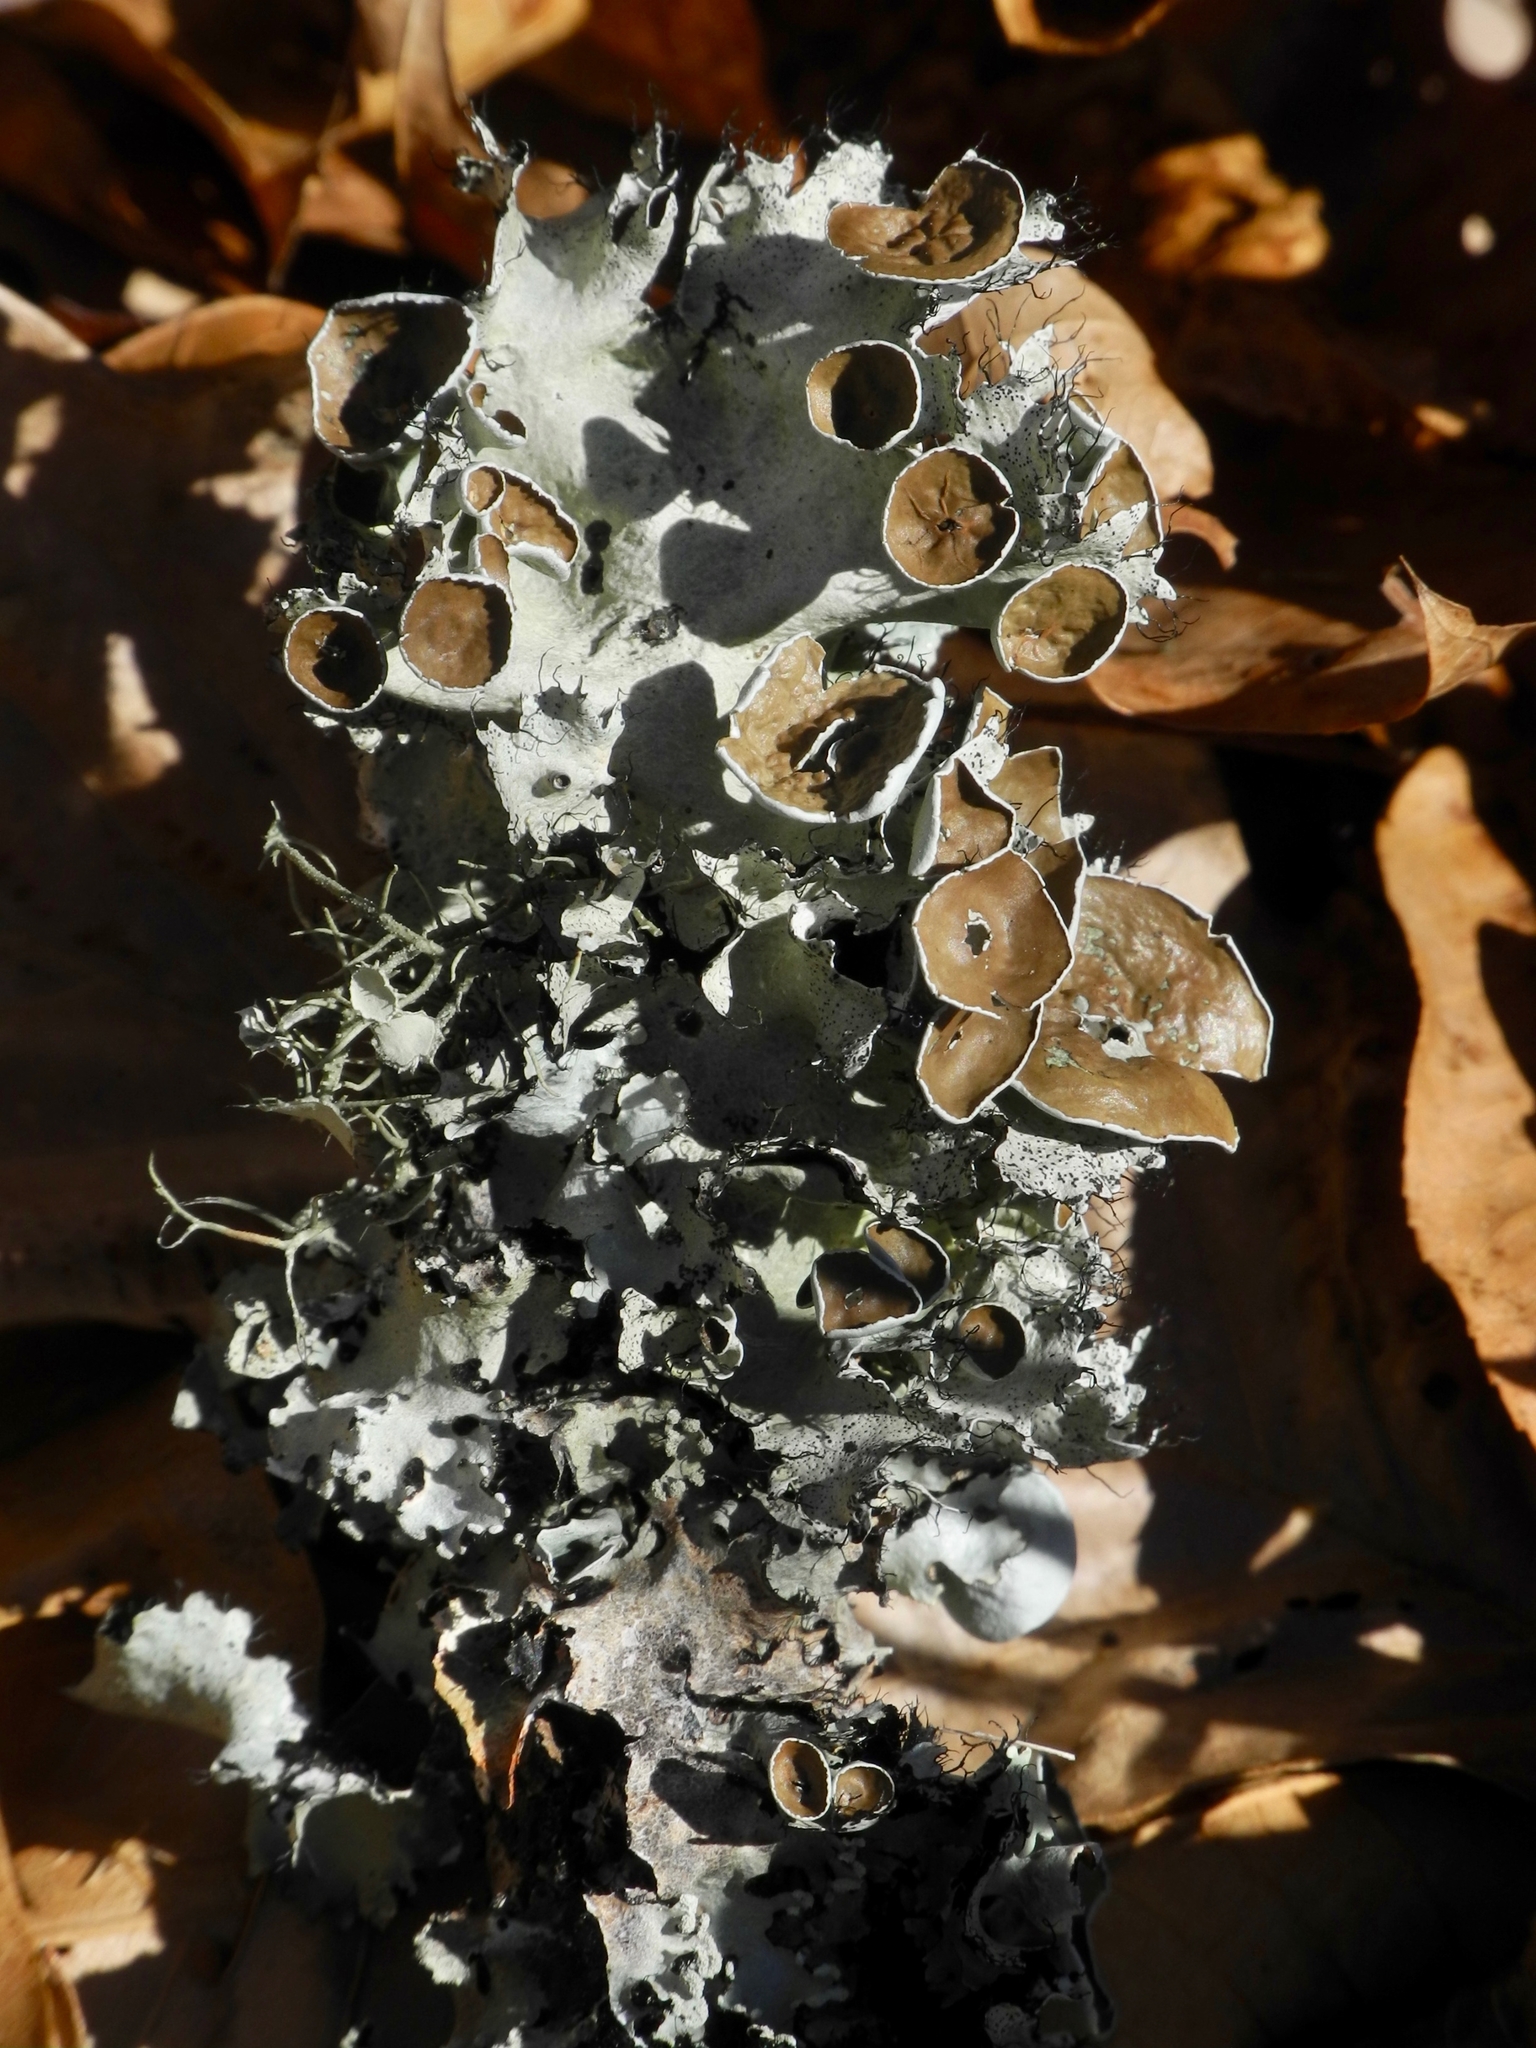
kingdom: Fungi
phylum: Ascomycota
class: Lecanoromycetes
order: Lecanorales
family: Parmeliaceae
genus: Parmotrema
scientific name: Parmotrema perforatum
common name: Perforated ruffle lichen
